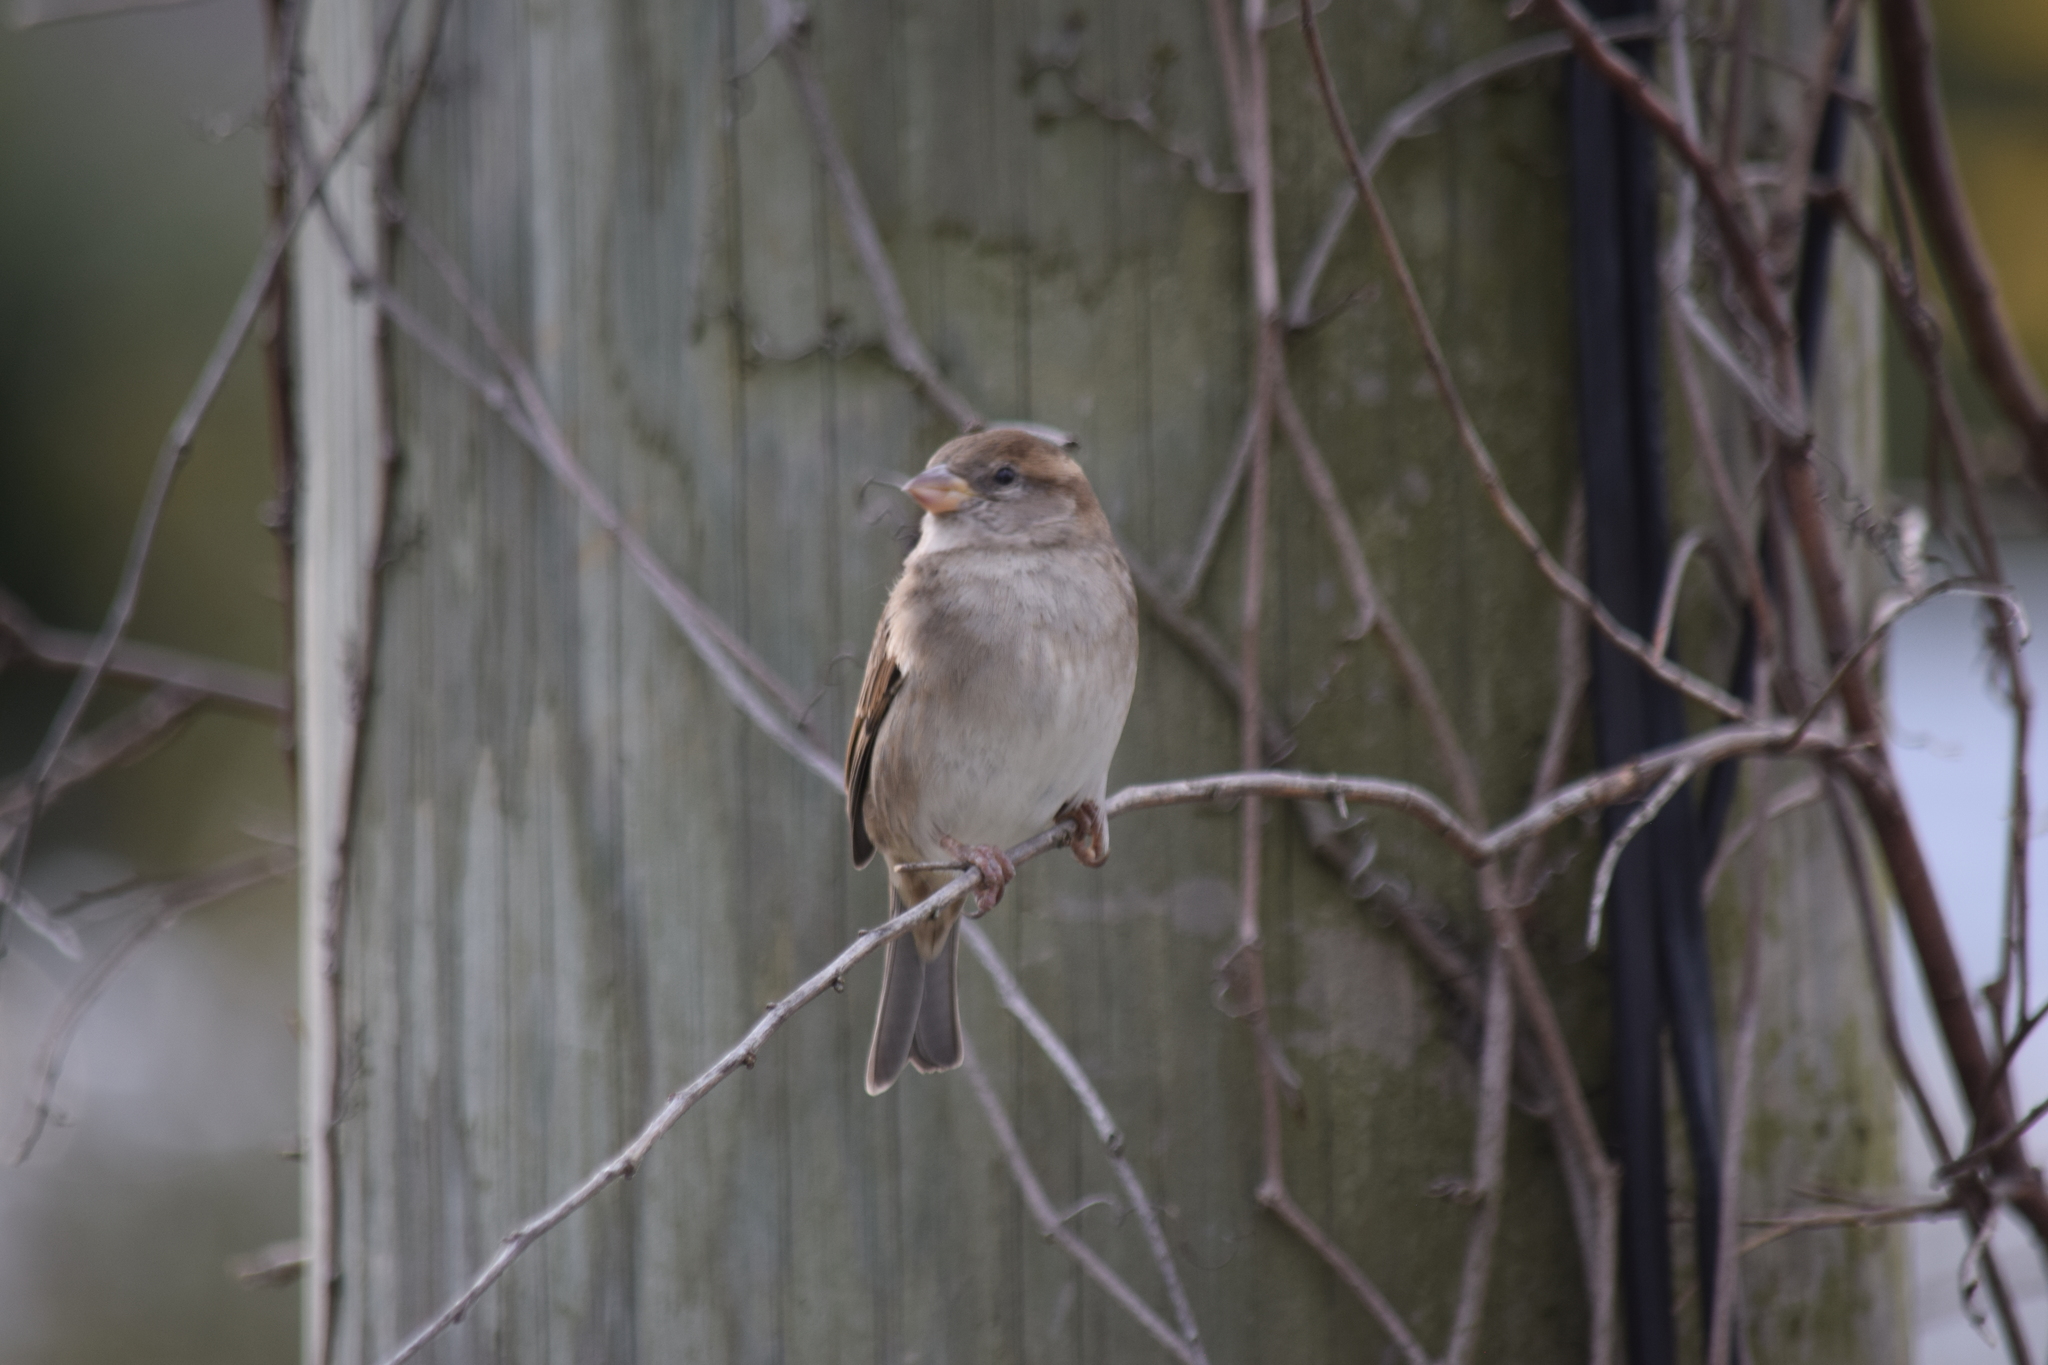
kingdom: Animalia
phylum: Chordata
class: Aves
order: Passeriformes
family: Passeridae
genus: Passer
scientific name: Passer domesticus
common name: House sparrow
